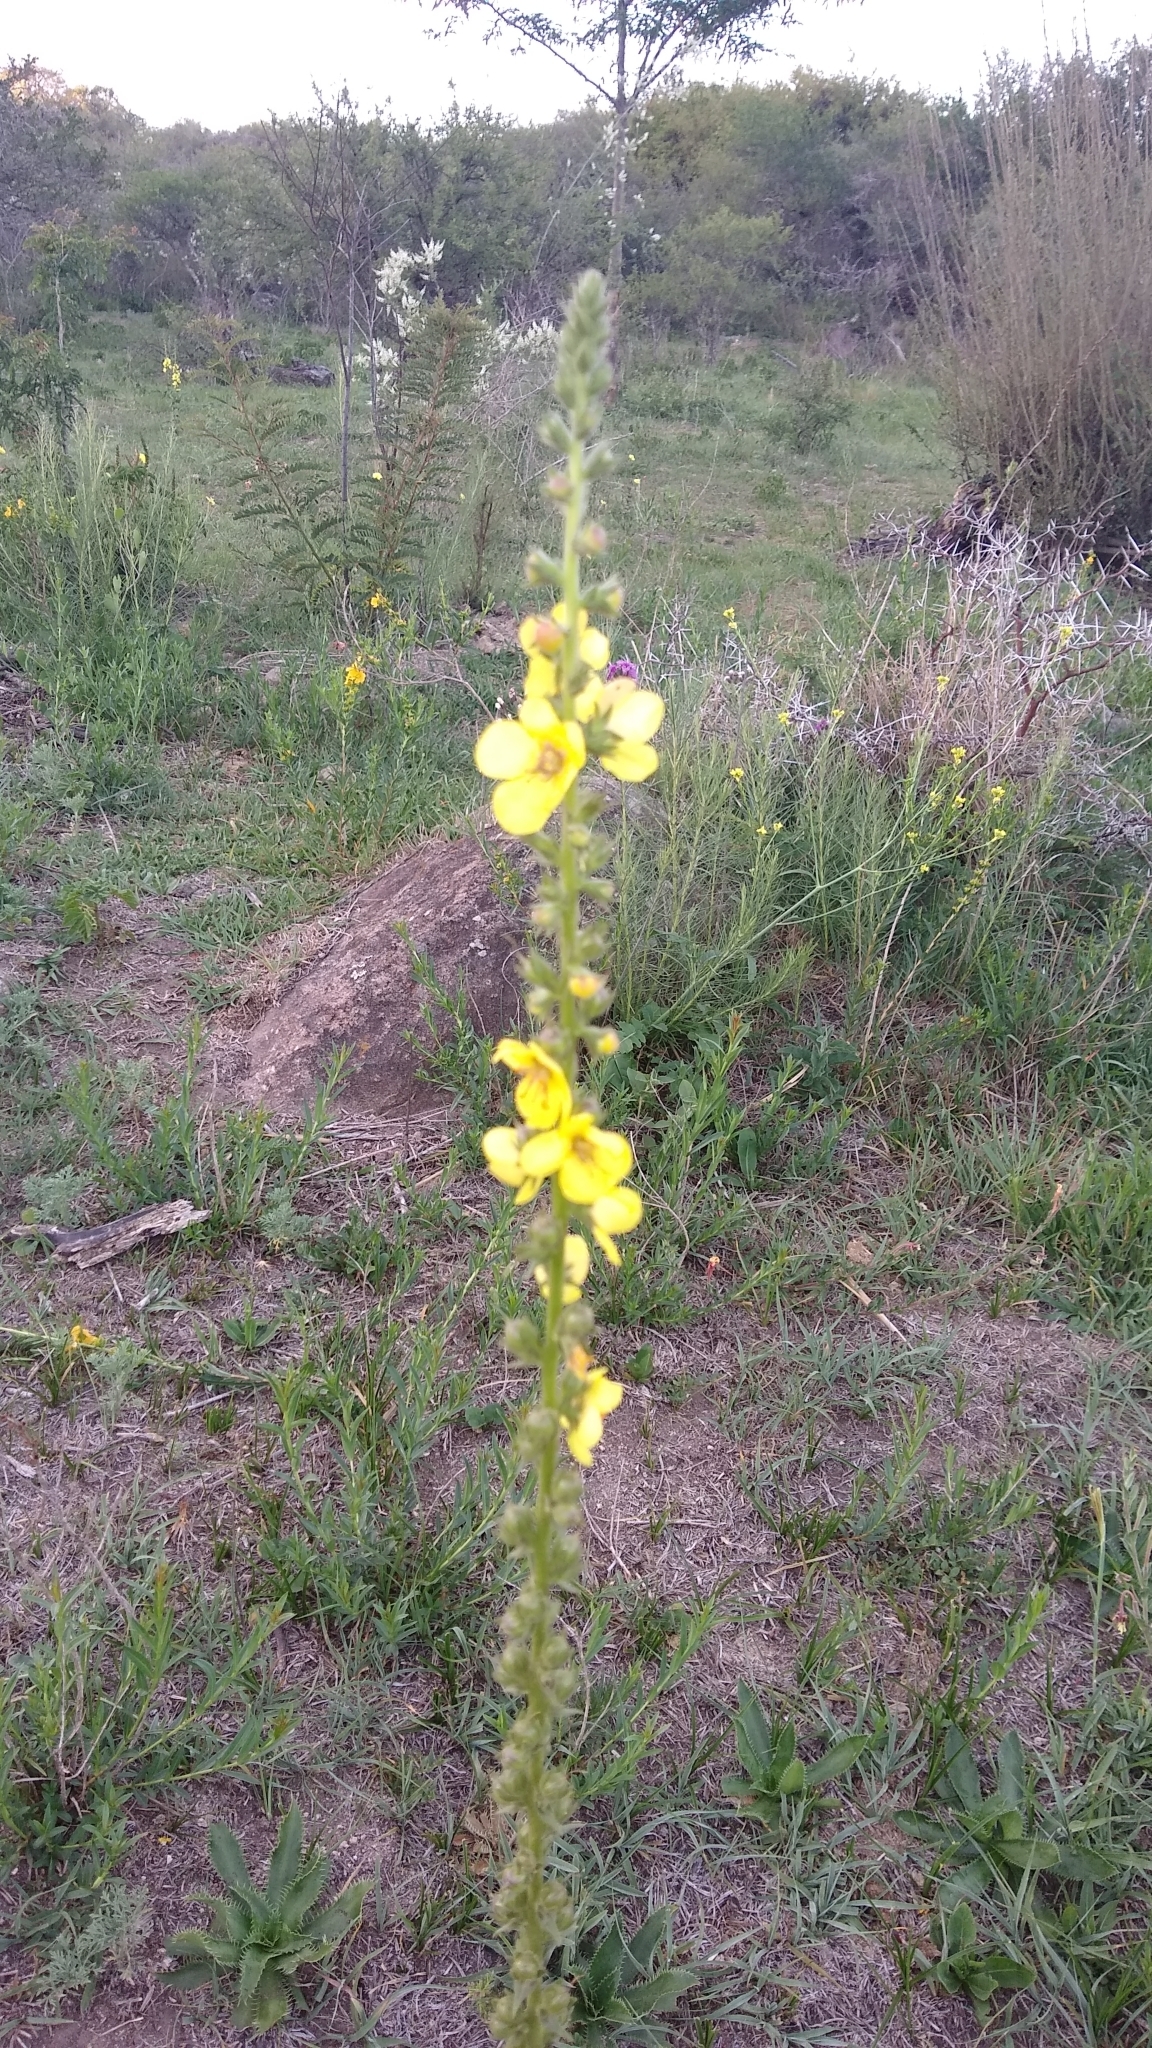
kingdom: Plantae
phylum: Tracheophyta
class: Magnoliopsida
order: Lamiales
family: Scrophulariaceae
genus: Verbascum
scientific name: Verbascum virgatum
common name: Twiggy mullein
